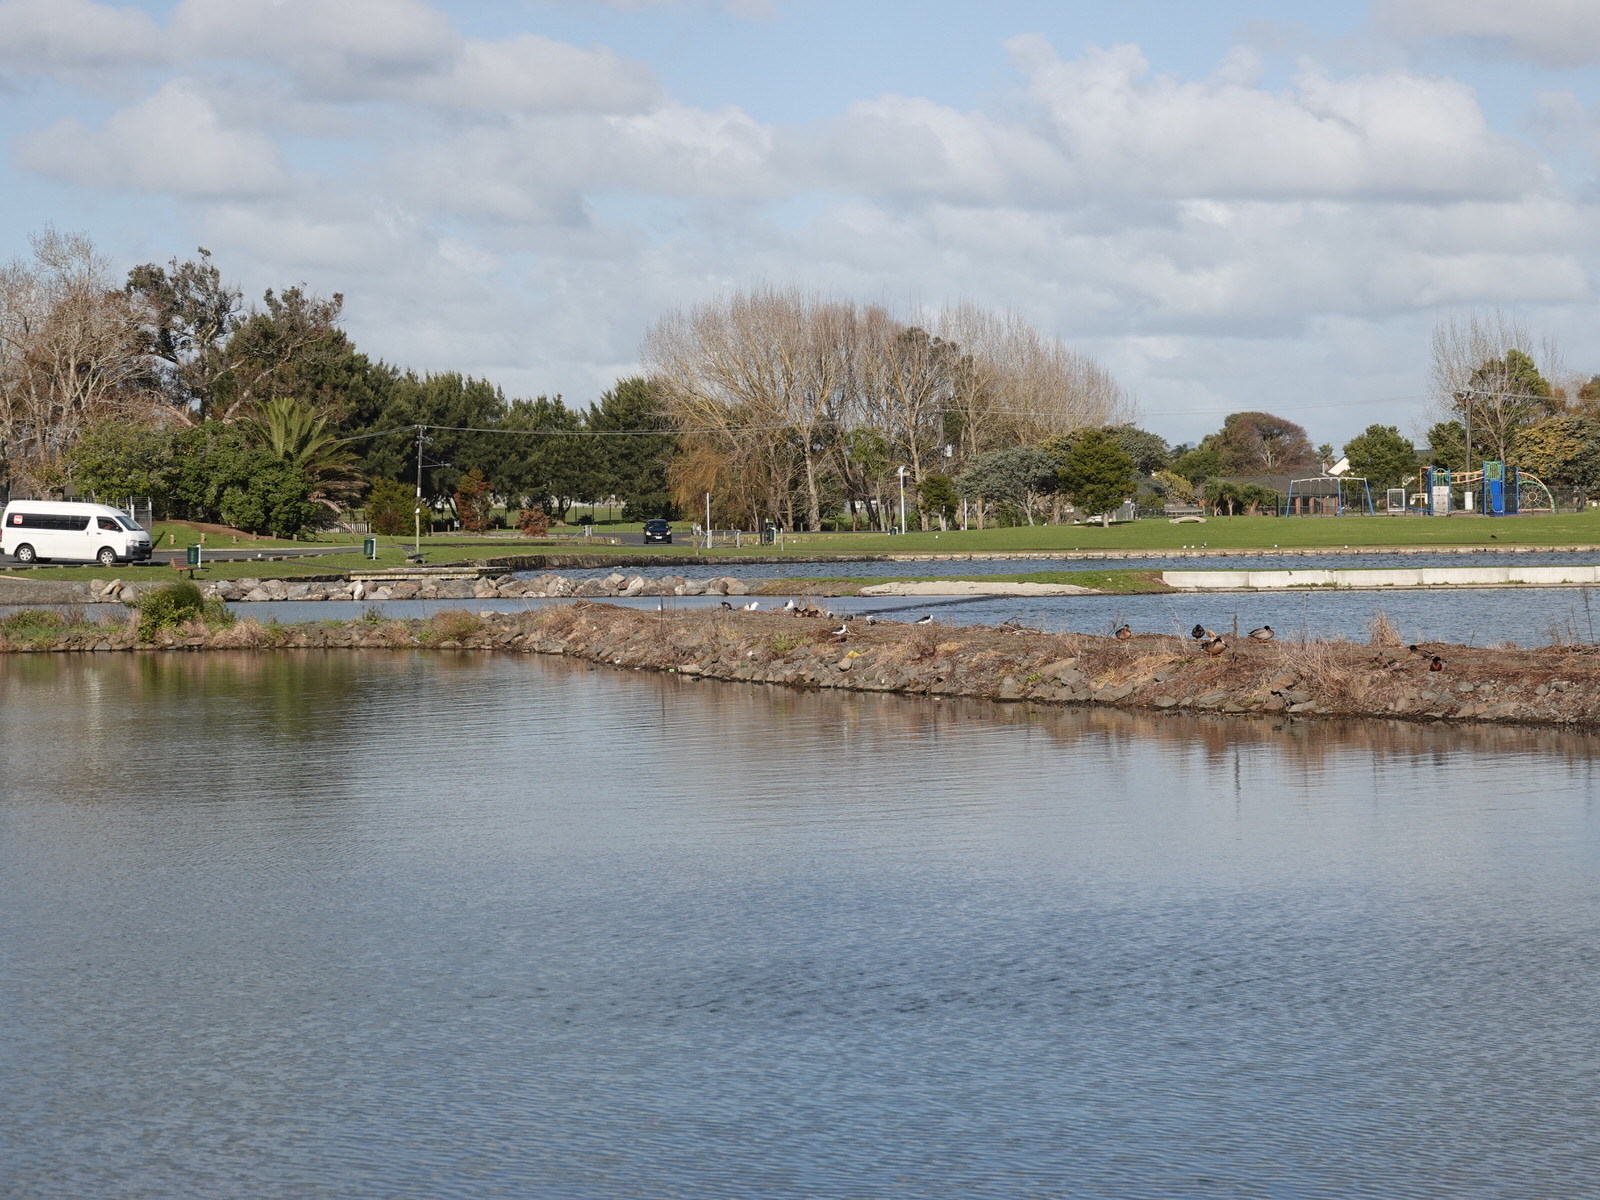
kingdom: Animalia
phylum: Chordata
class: Aves
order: Anseriformes
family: Anatidae
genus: Anas
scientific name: Anas
